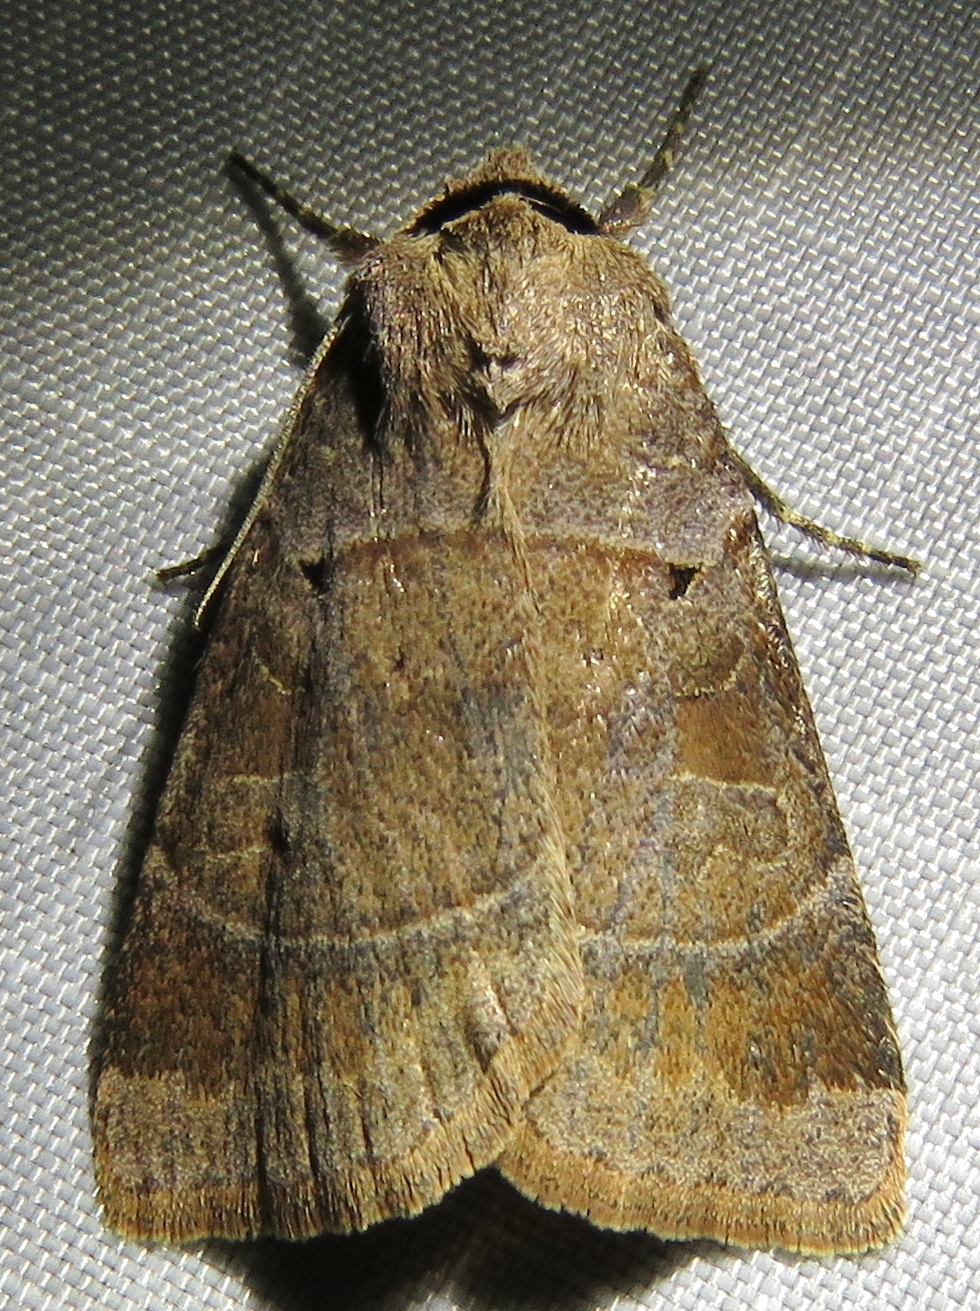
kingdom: Animalia
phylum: Arthropoda
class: Insecta
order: Lepidoptera
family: Noctuidae
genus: Agnorisma
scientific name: Agnorisma badinodis
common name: Pale-banded dart
